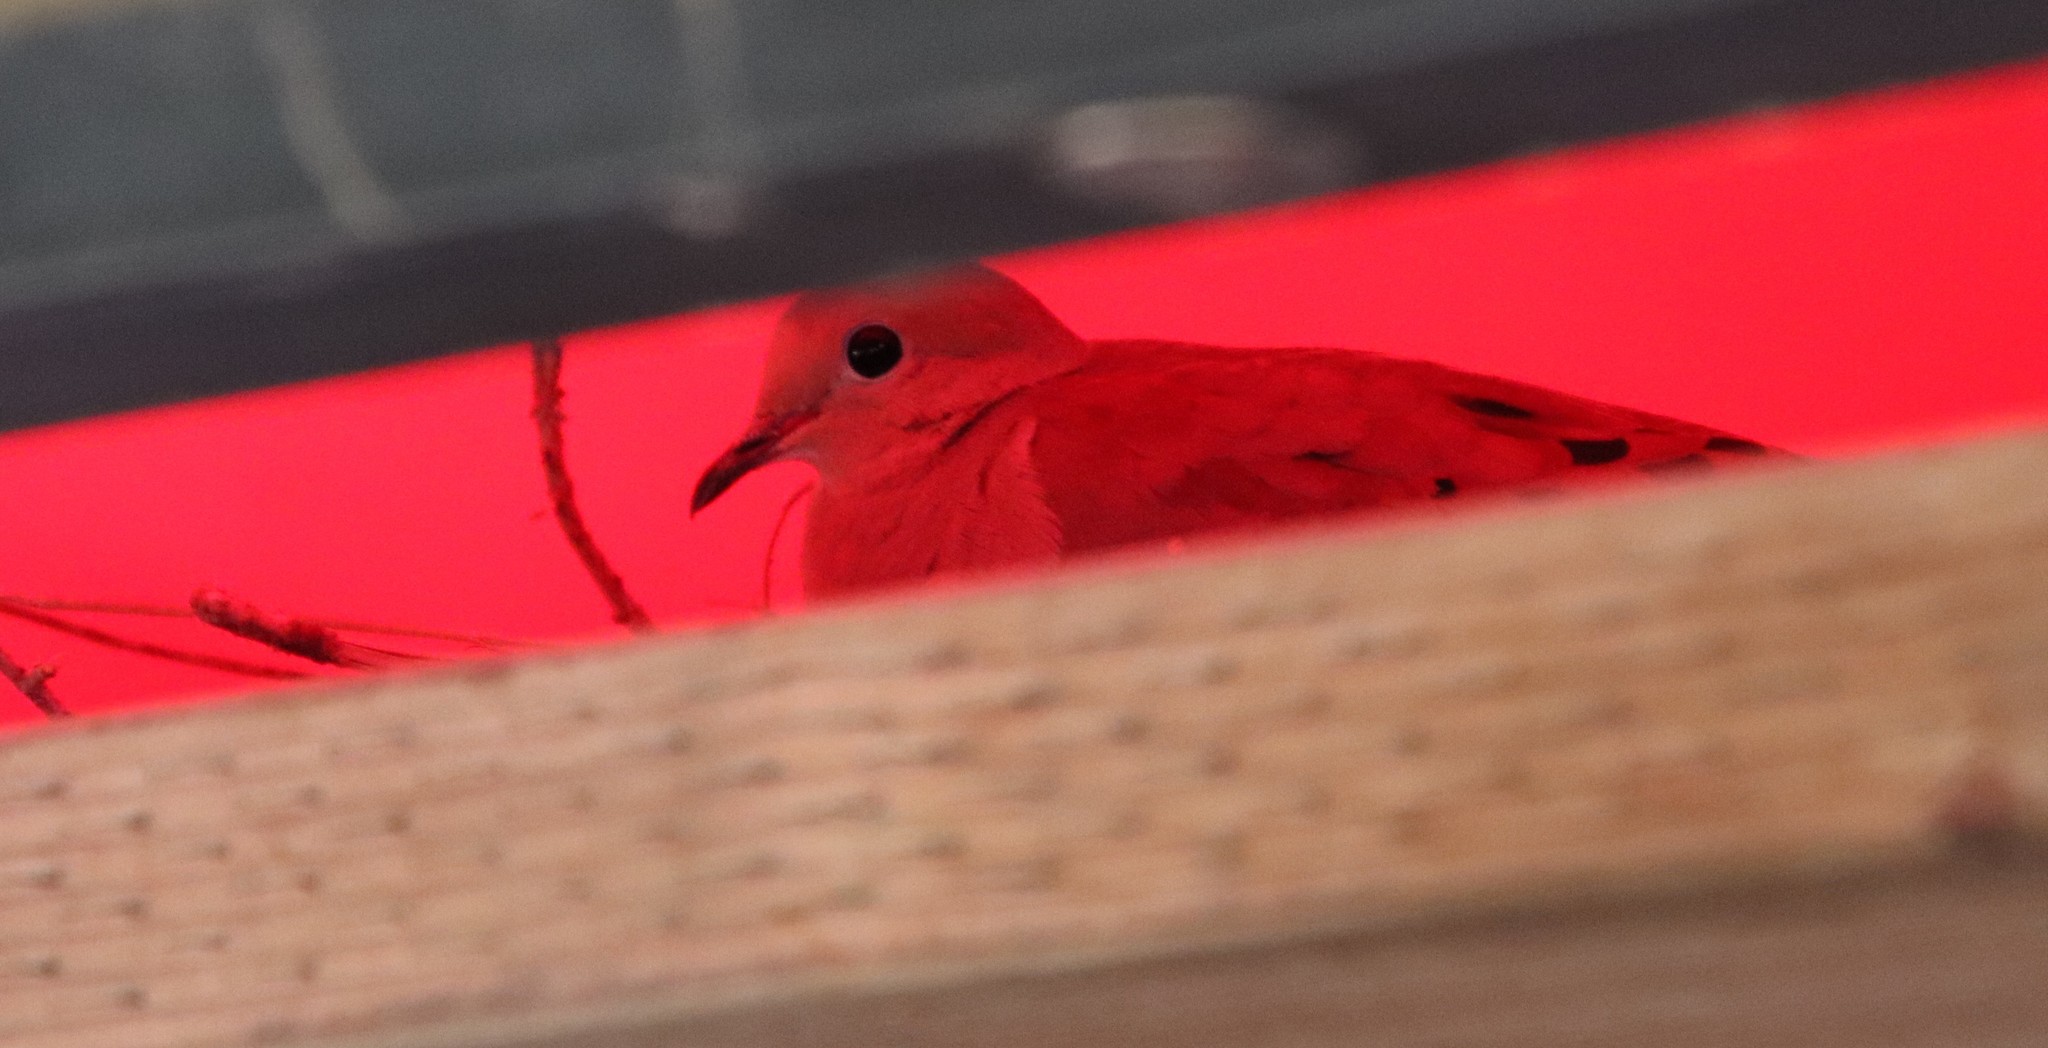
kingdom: Animalia
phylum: Chordata
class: Aves
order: Columbiformes
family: Columbidae
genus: Zenaida
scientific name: Zenaida macroura
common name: Mourning dove
